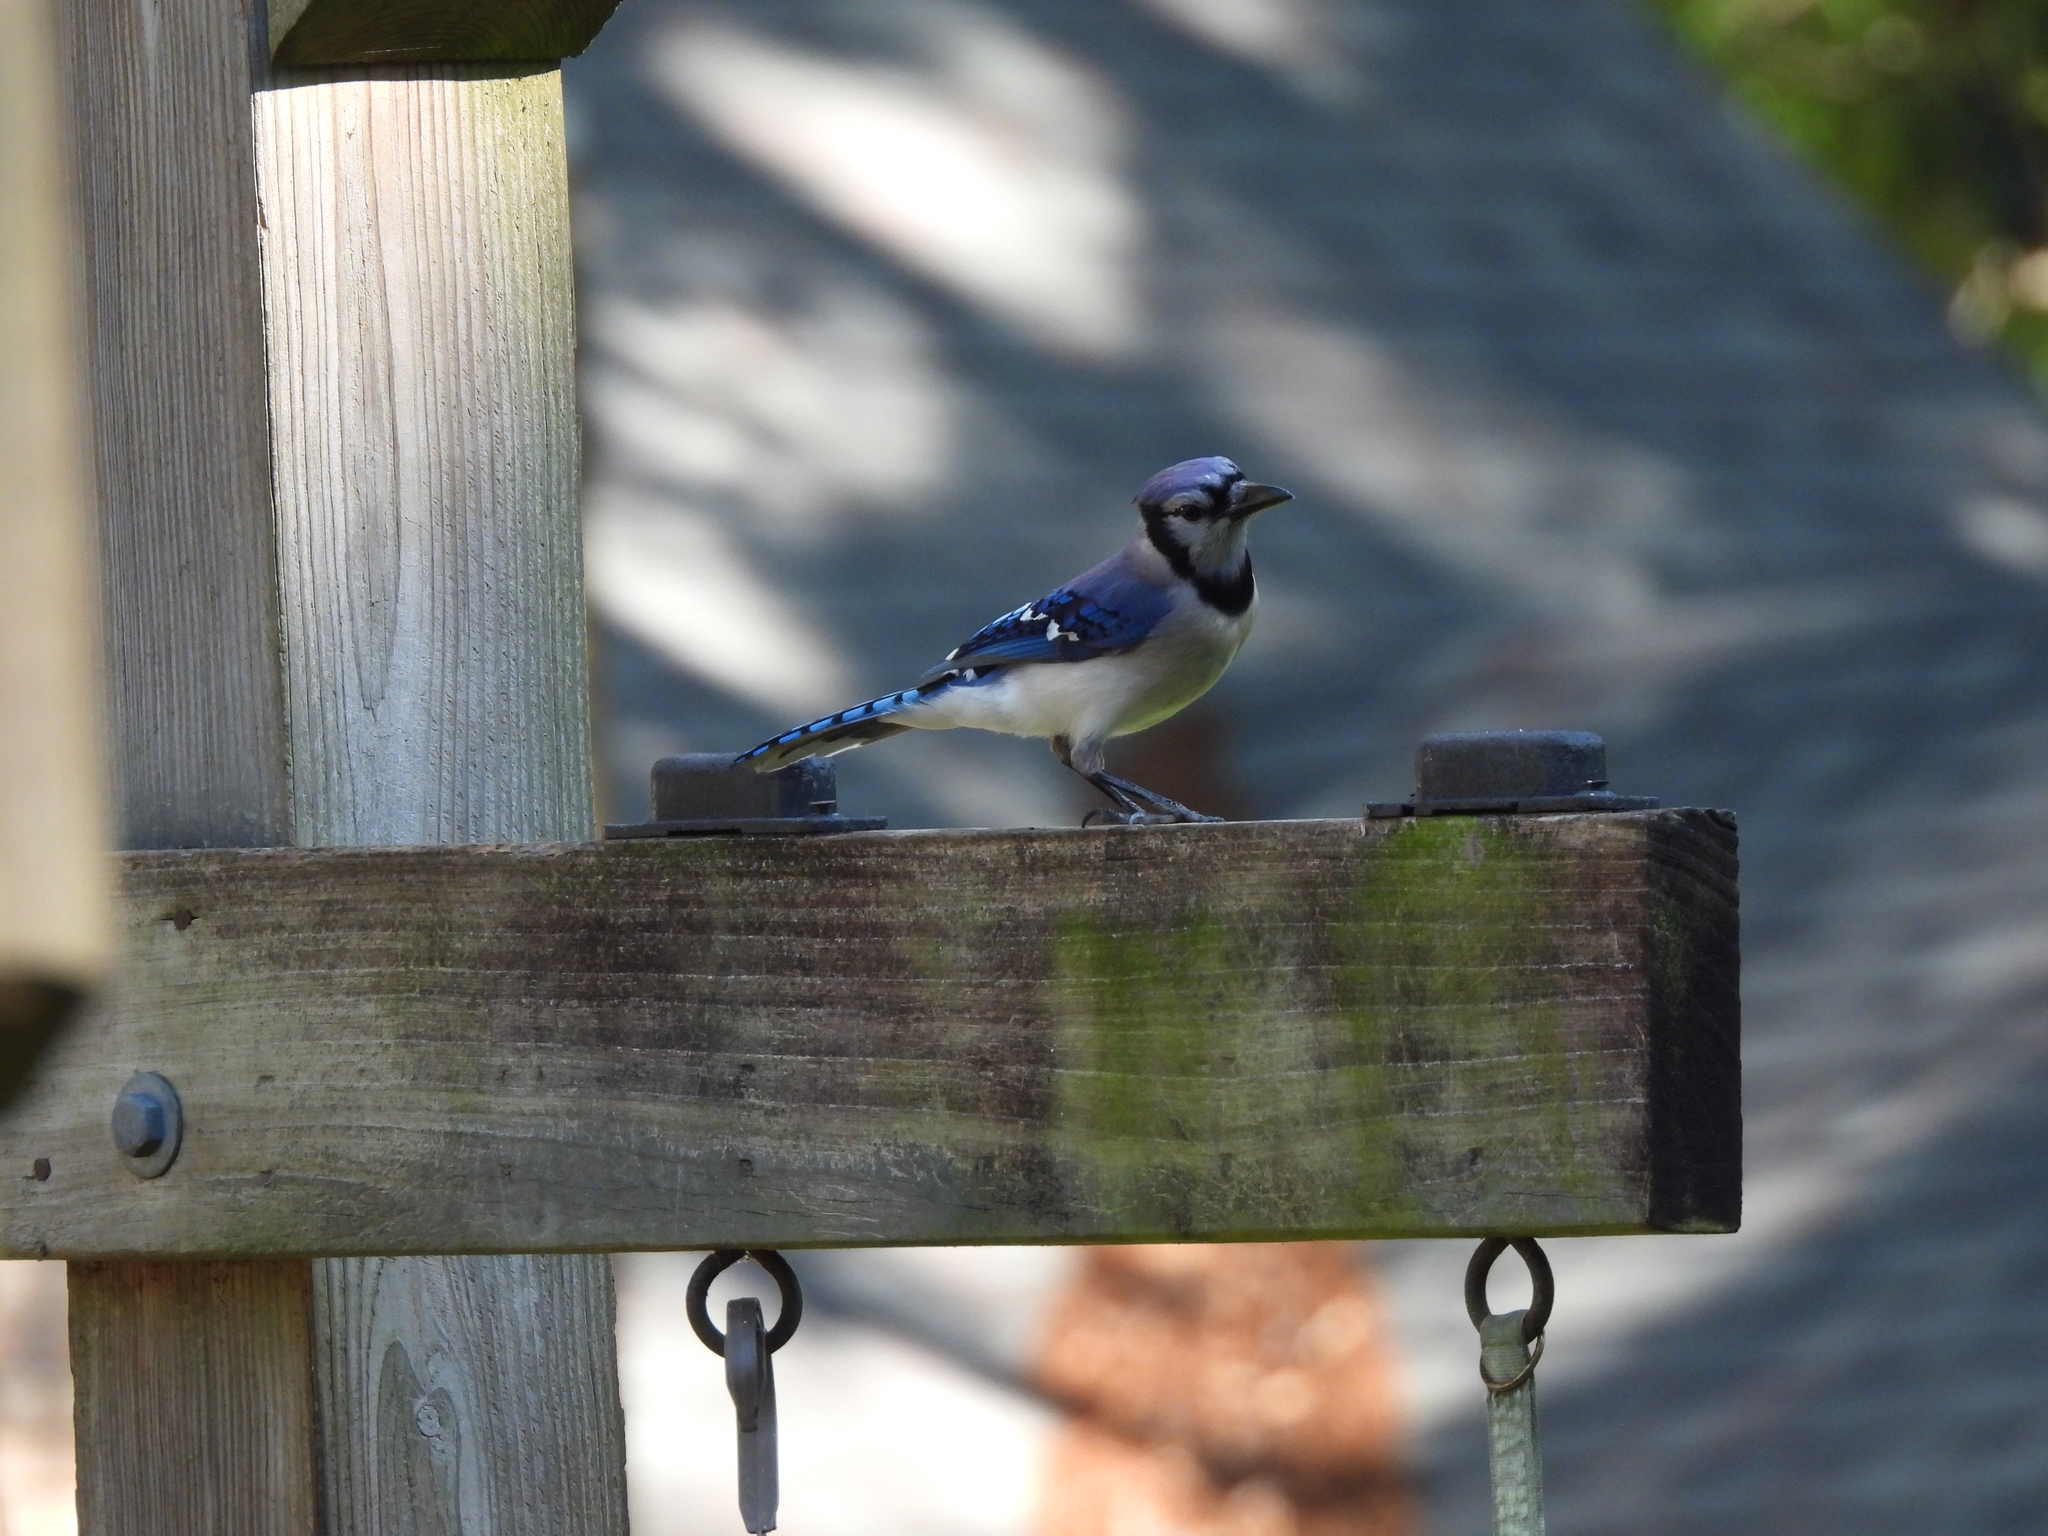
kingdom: Animalia
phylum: Chordata
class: Aves
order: Passeriformes
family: Corvidae
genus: Cyanocitta
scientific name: Cyanocitta cristata
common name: Blue jay
